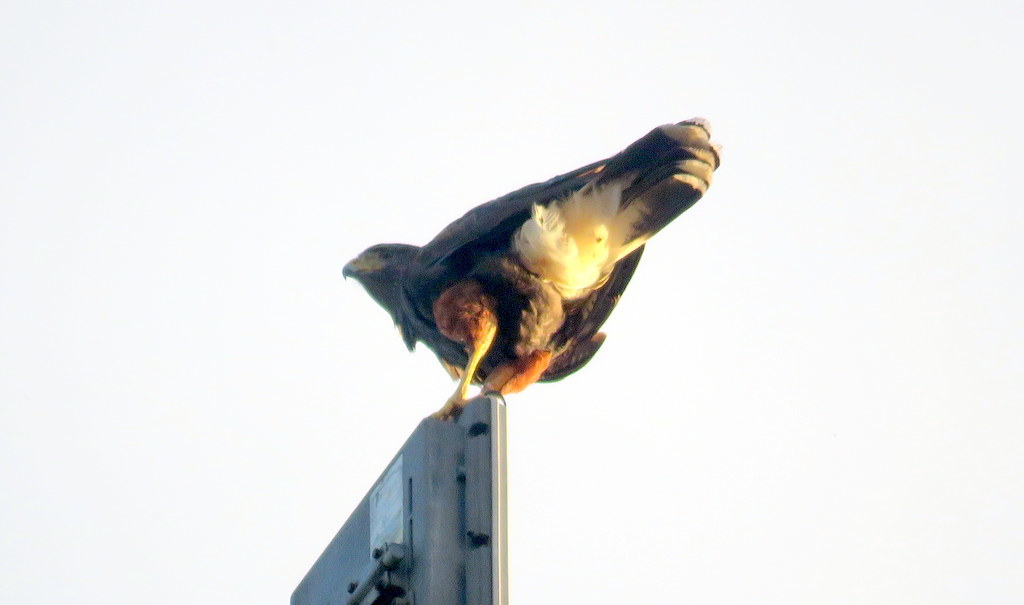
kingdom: Animalia
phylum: Chordata
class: Aves
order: Accipitriformes
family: Accipitridae
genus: Parabuteo
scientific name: Parabuteo unicinctus
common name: Harris's hawk
